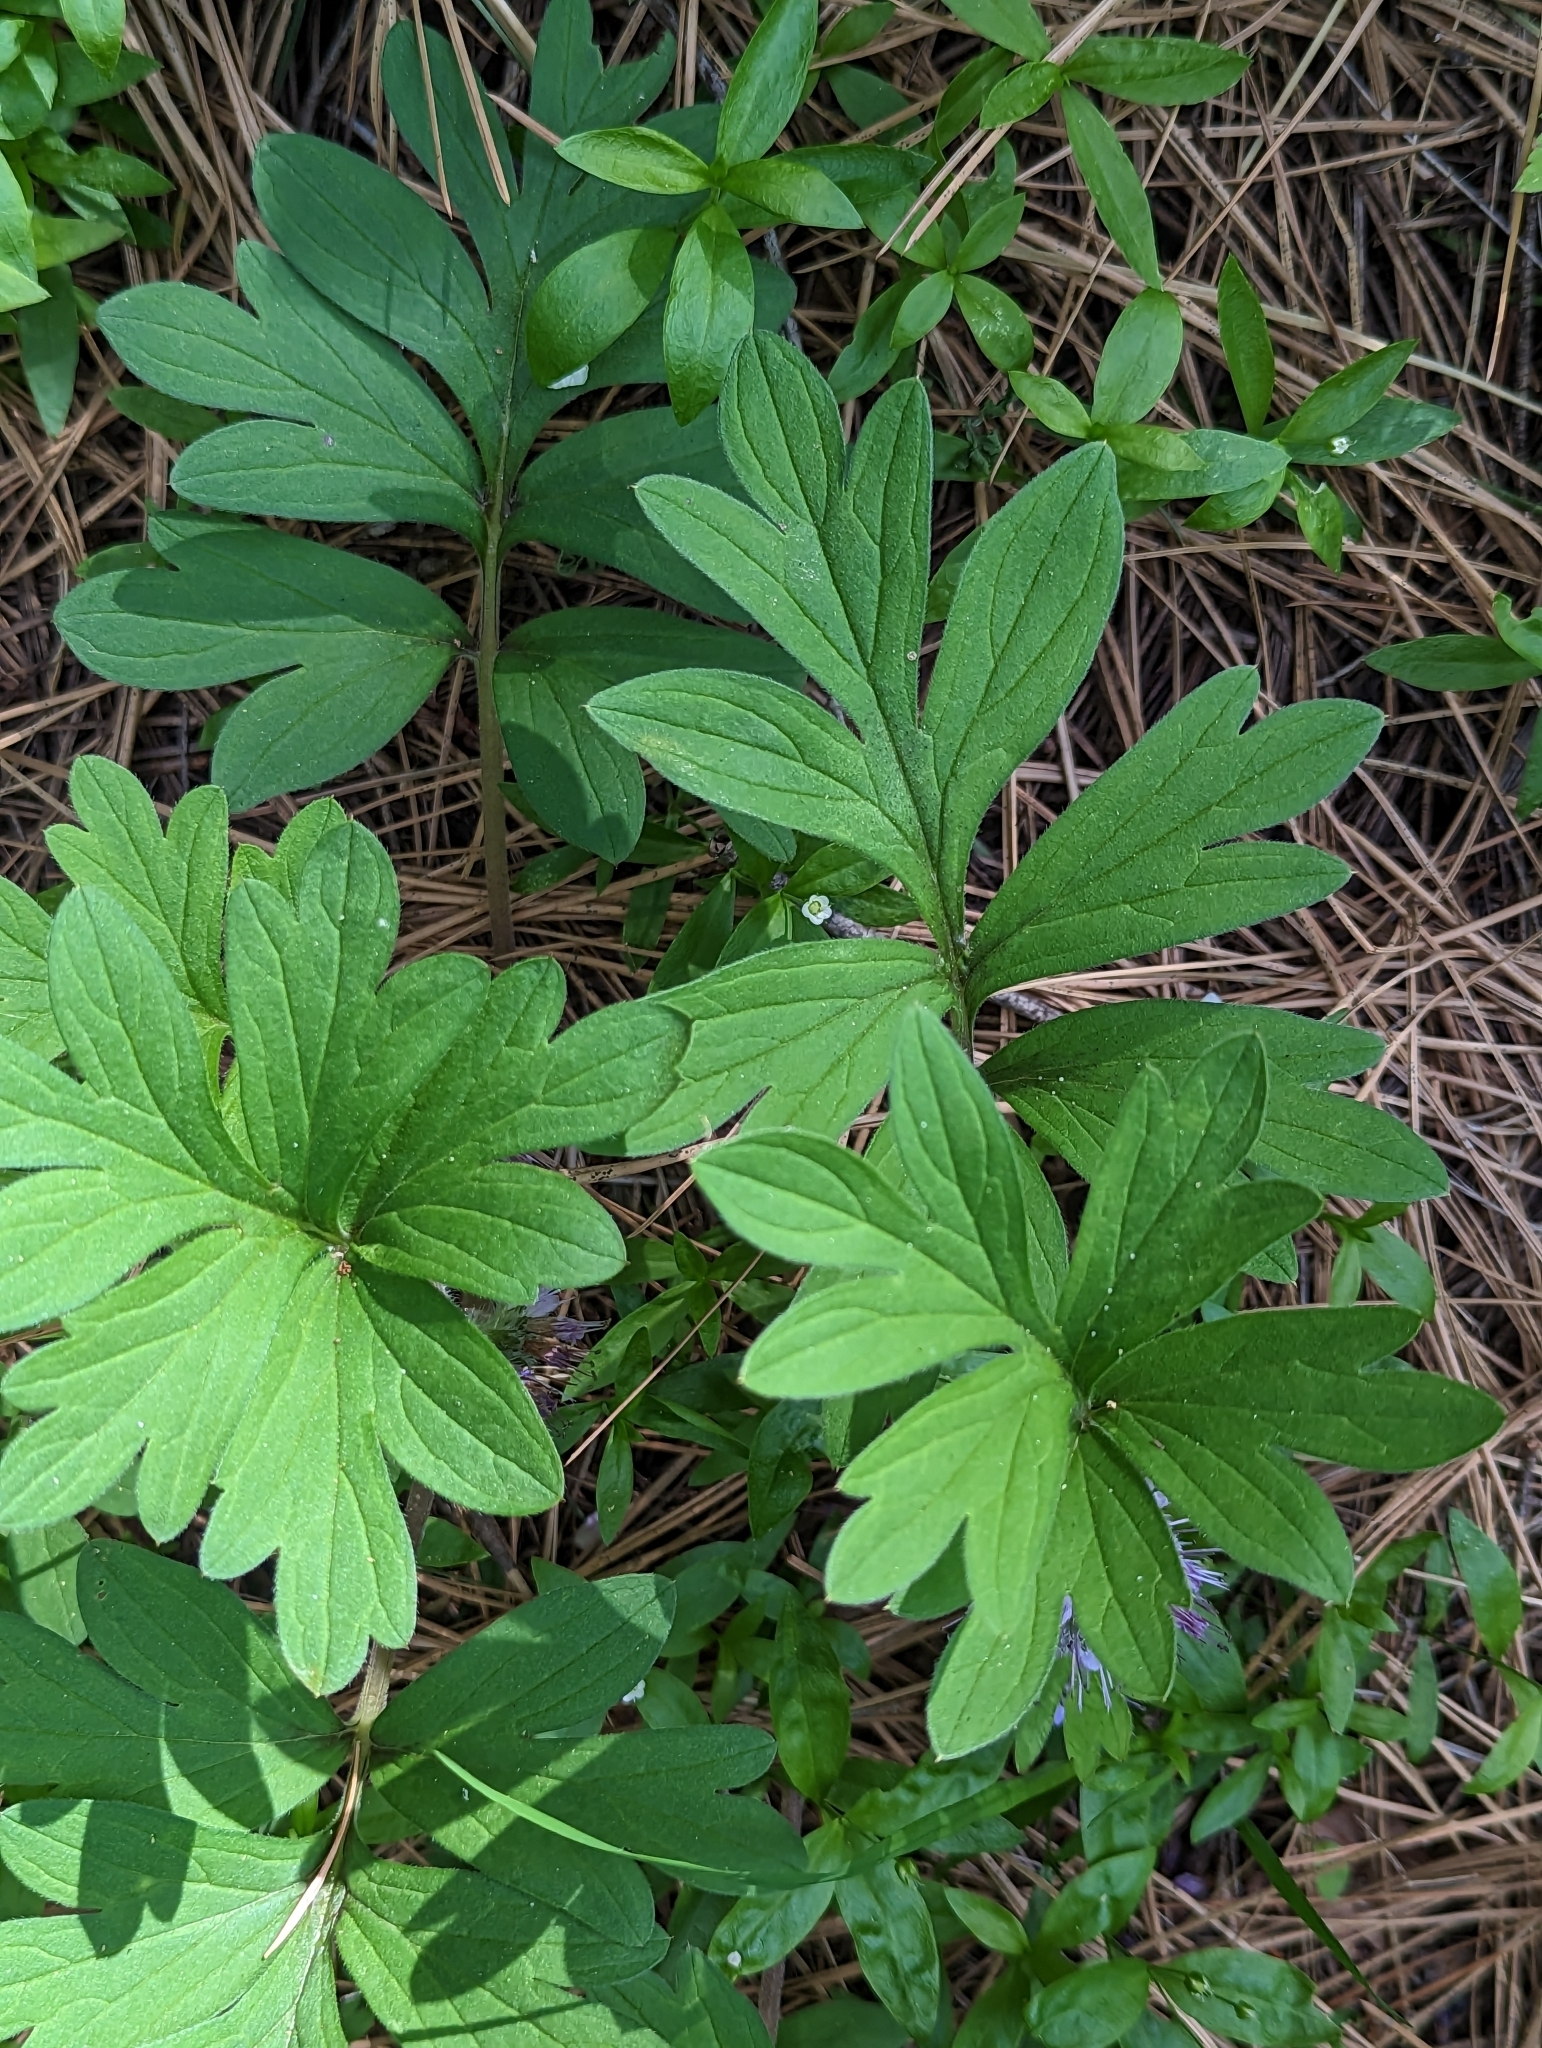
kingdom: Plantae
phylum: Tracheophyta
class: Magnoliopsida
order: Boraginales
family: Hydrophyllaceae
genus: Hydrophyllum
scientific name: Hydrophyllum capitatum
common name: Woollen-breeches
